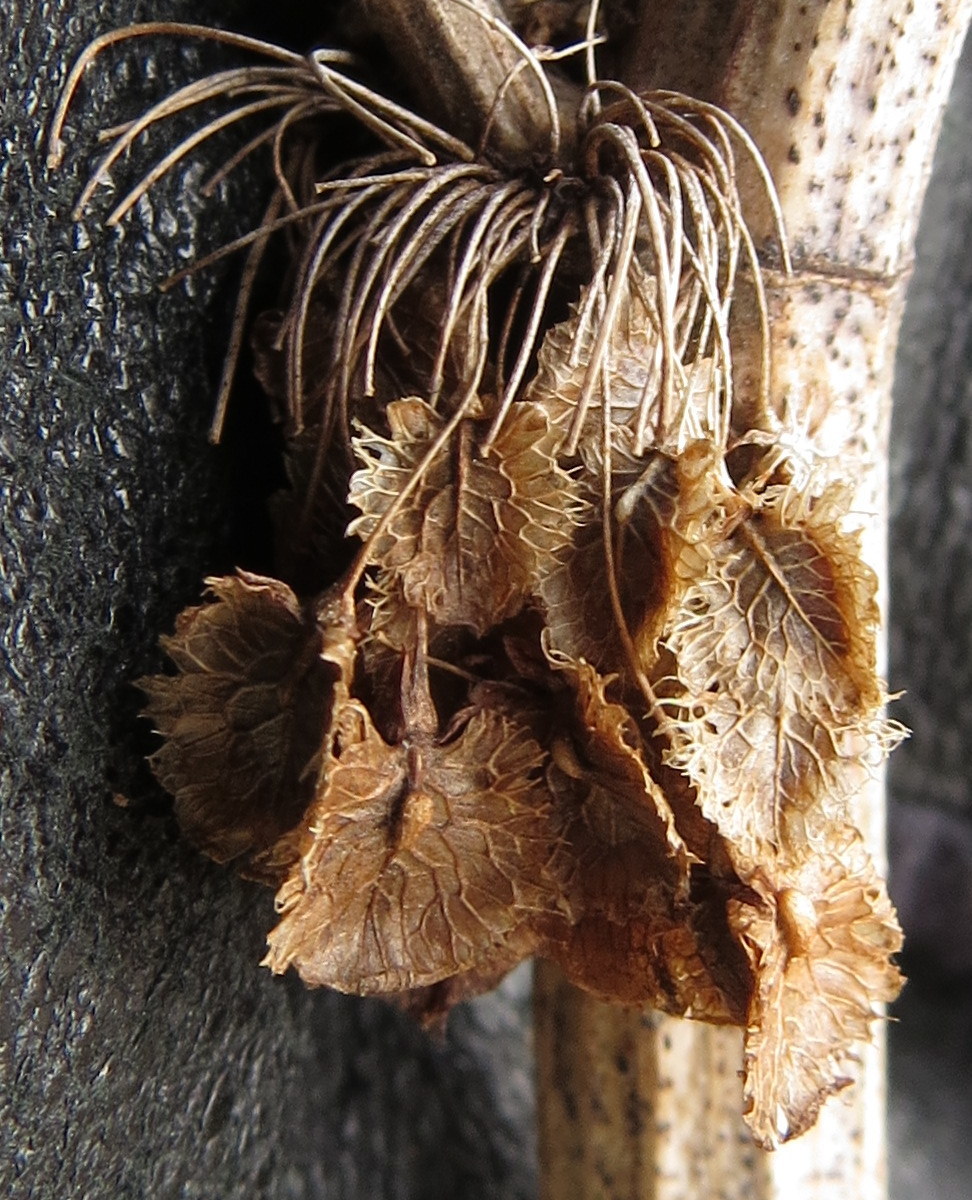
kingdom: Plantae
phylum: Tracheophyta
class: Magnoliopsida
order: Caryophyllales
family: Polygonaceae
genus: Rumex
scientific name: Rumex crispus
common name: Curled dock
